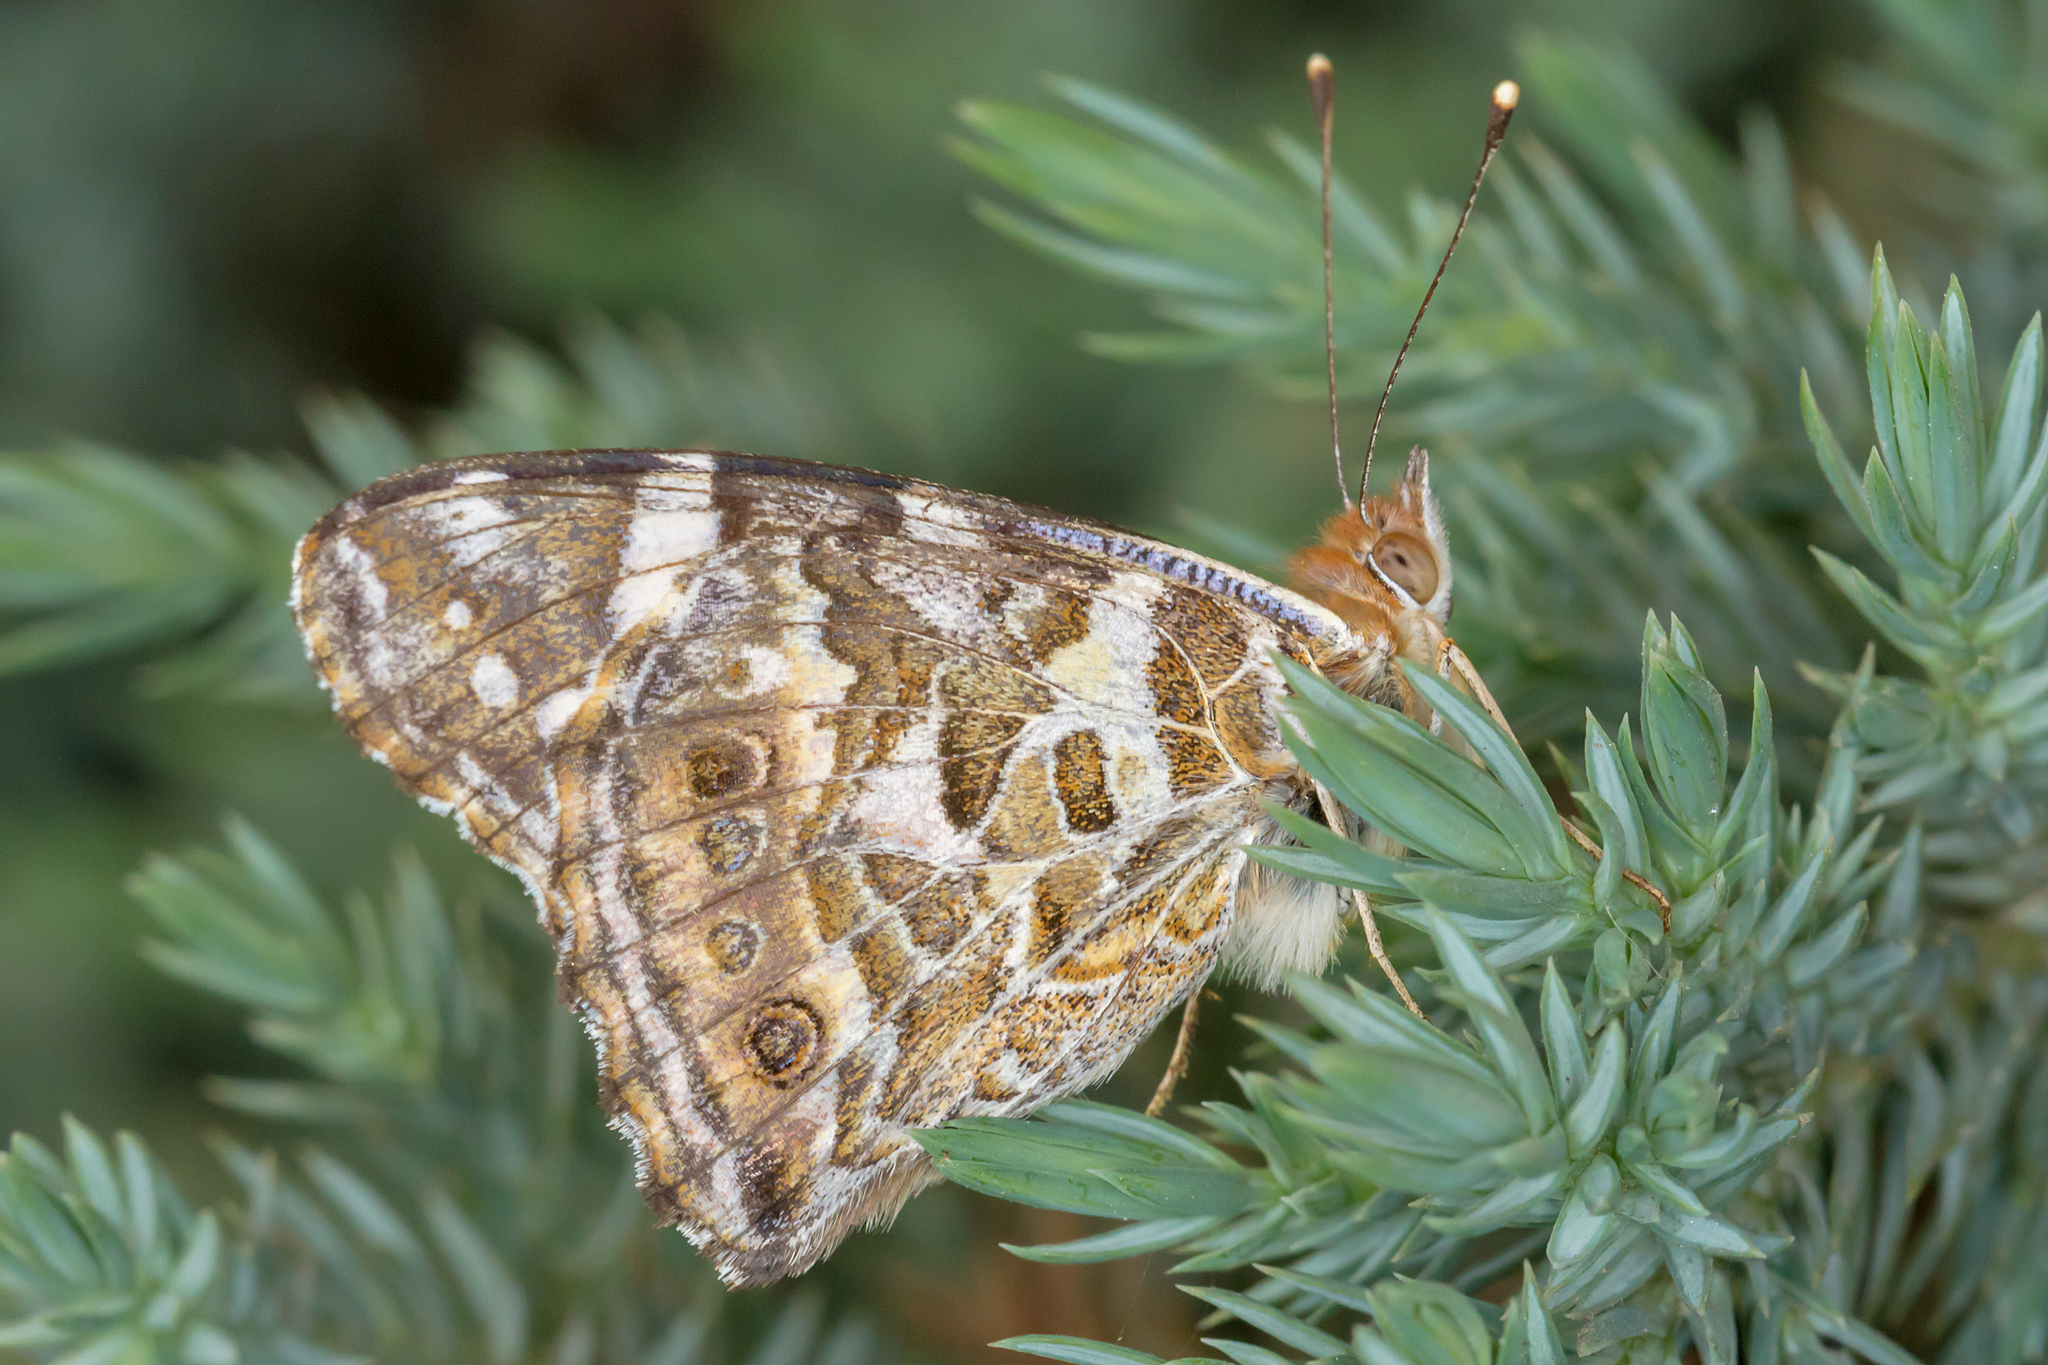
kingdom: Animalia
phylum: Arthropoda
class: Insecta
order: Lepidoptera
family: Nymphalidae
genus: Vanessa
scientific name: Vanessa kershawi
